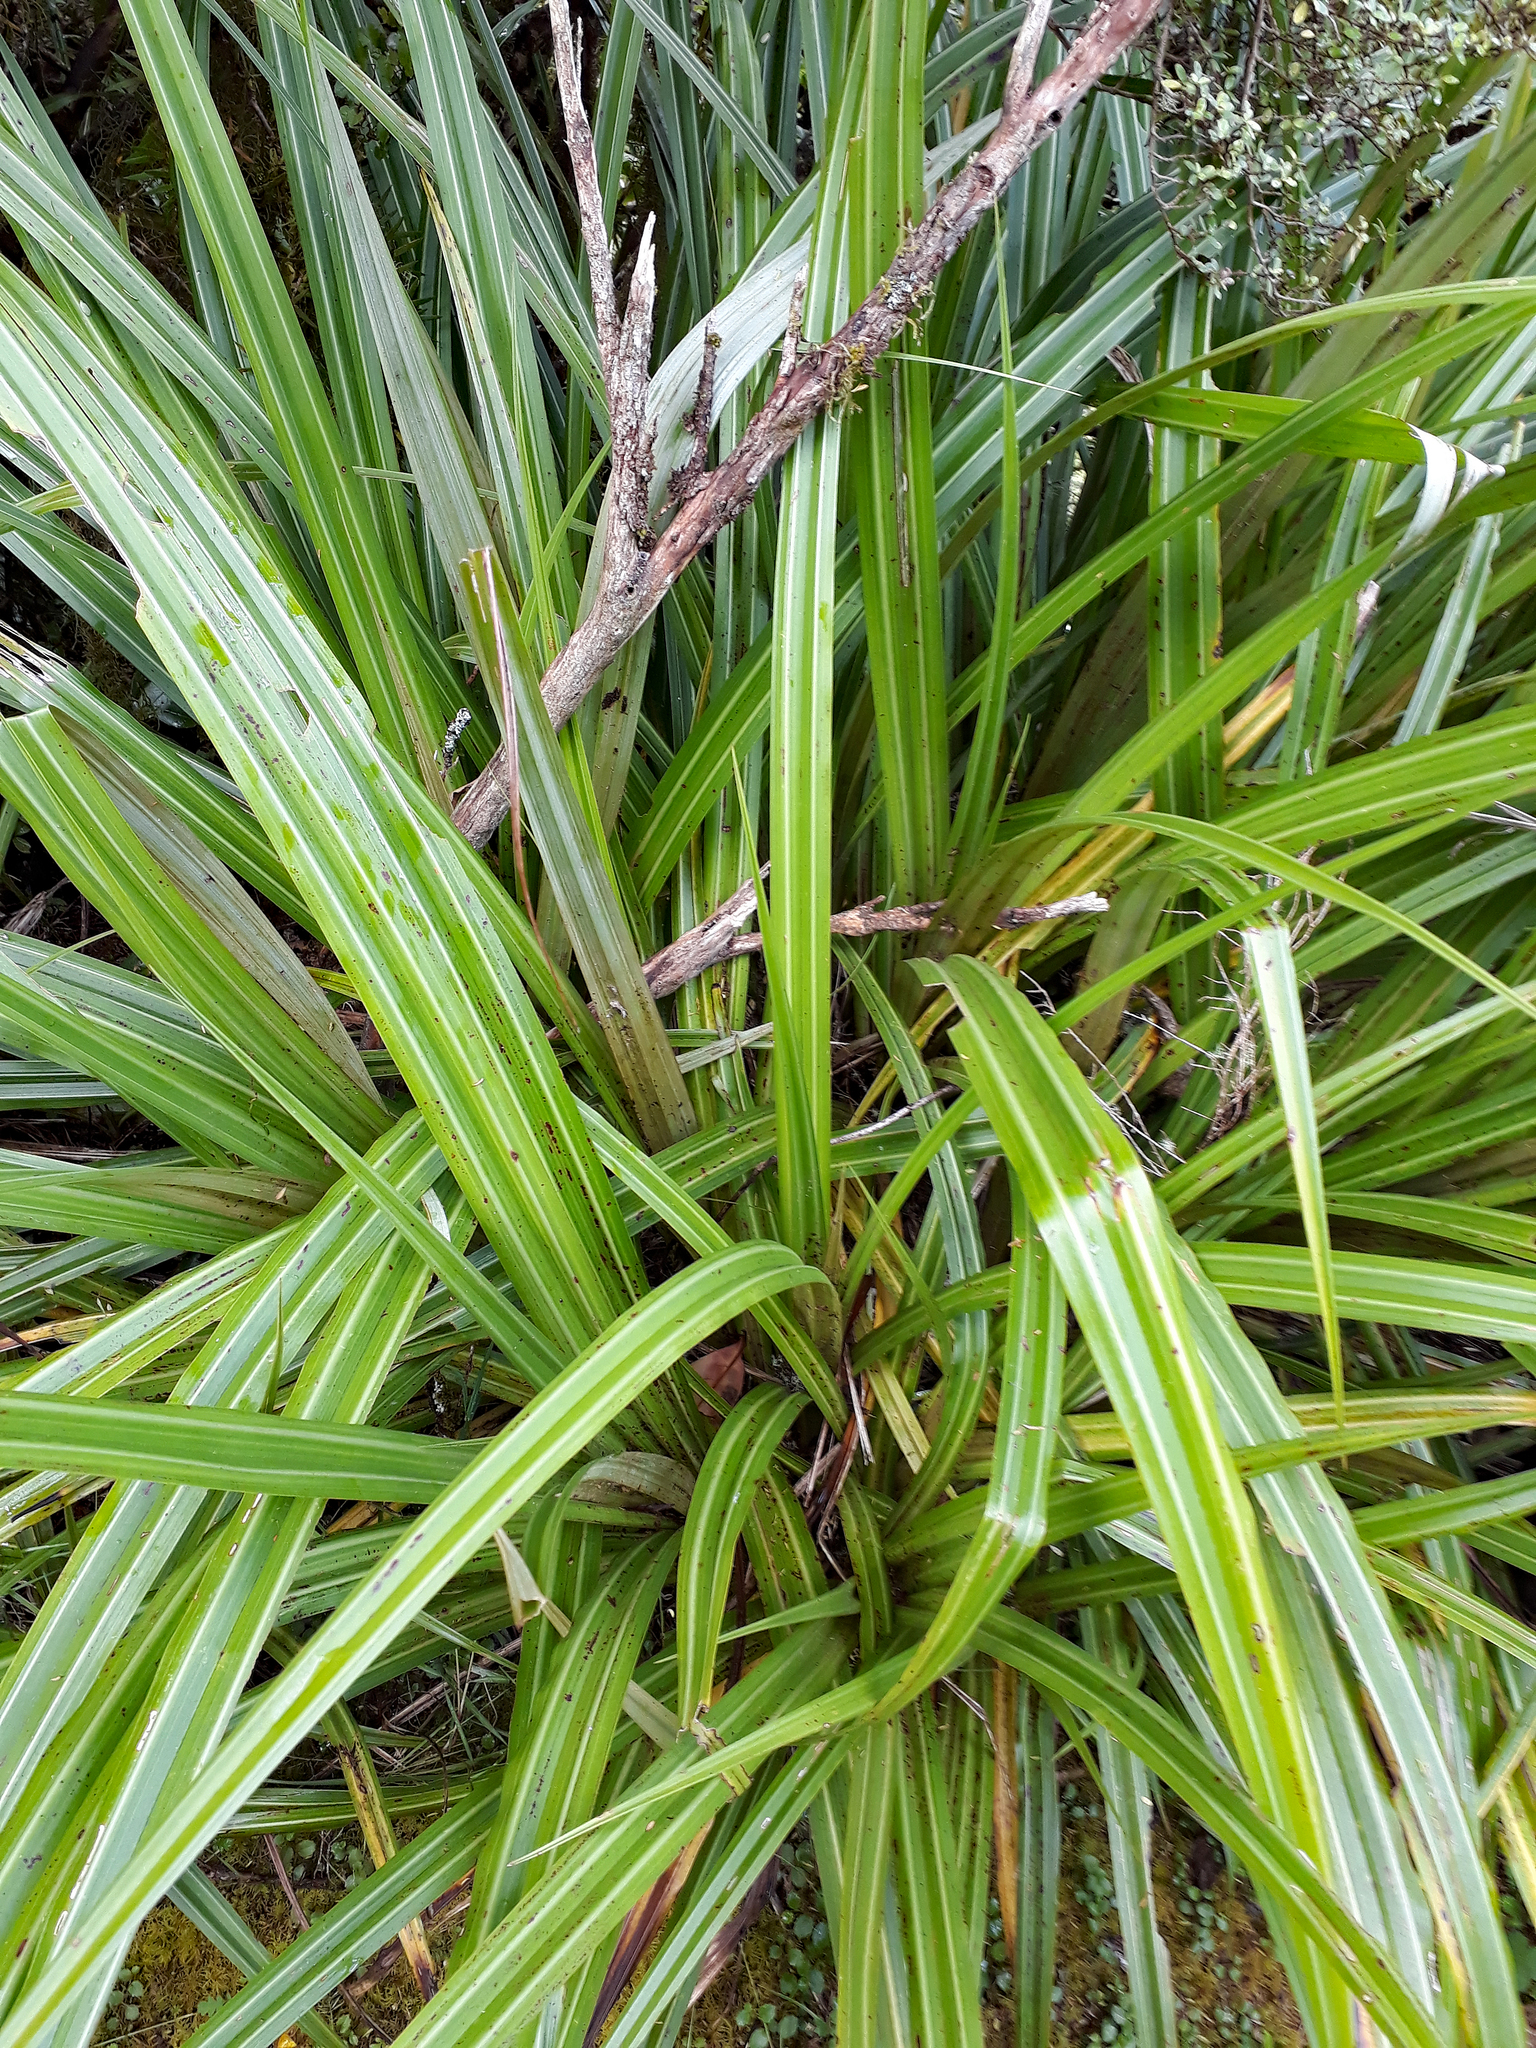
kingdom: Plantae
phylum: Tracheophyta
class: Liliopsida
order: Asparagales
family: Asteliaceae
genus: Astelia
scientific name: Astelia fragrans
